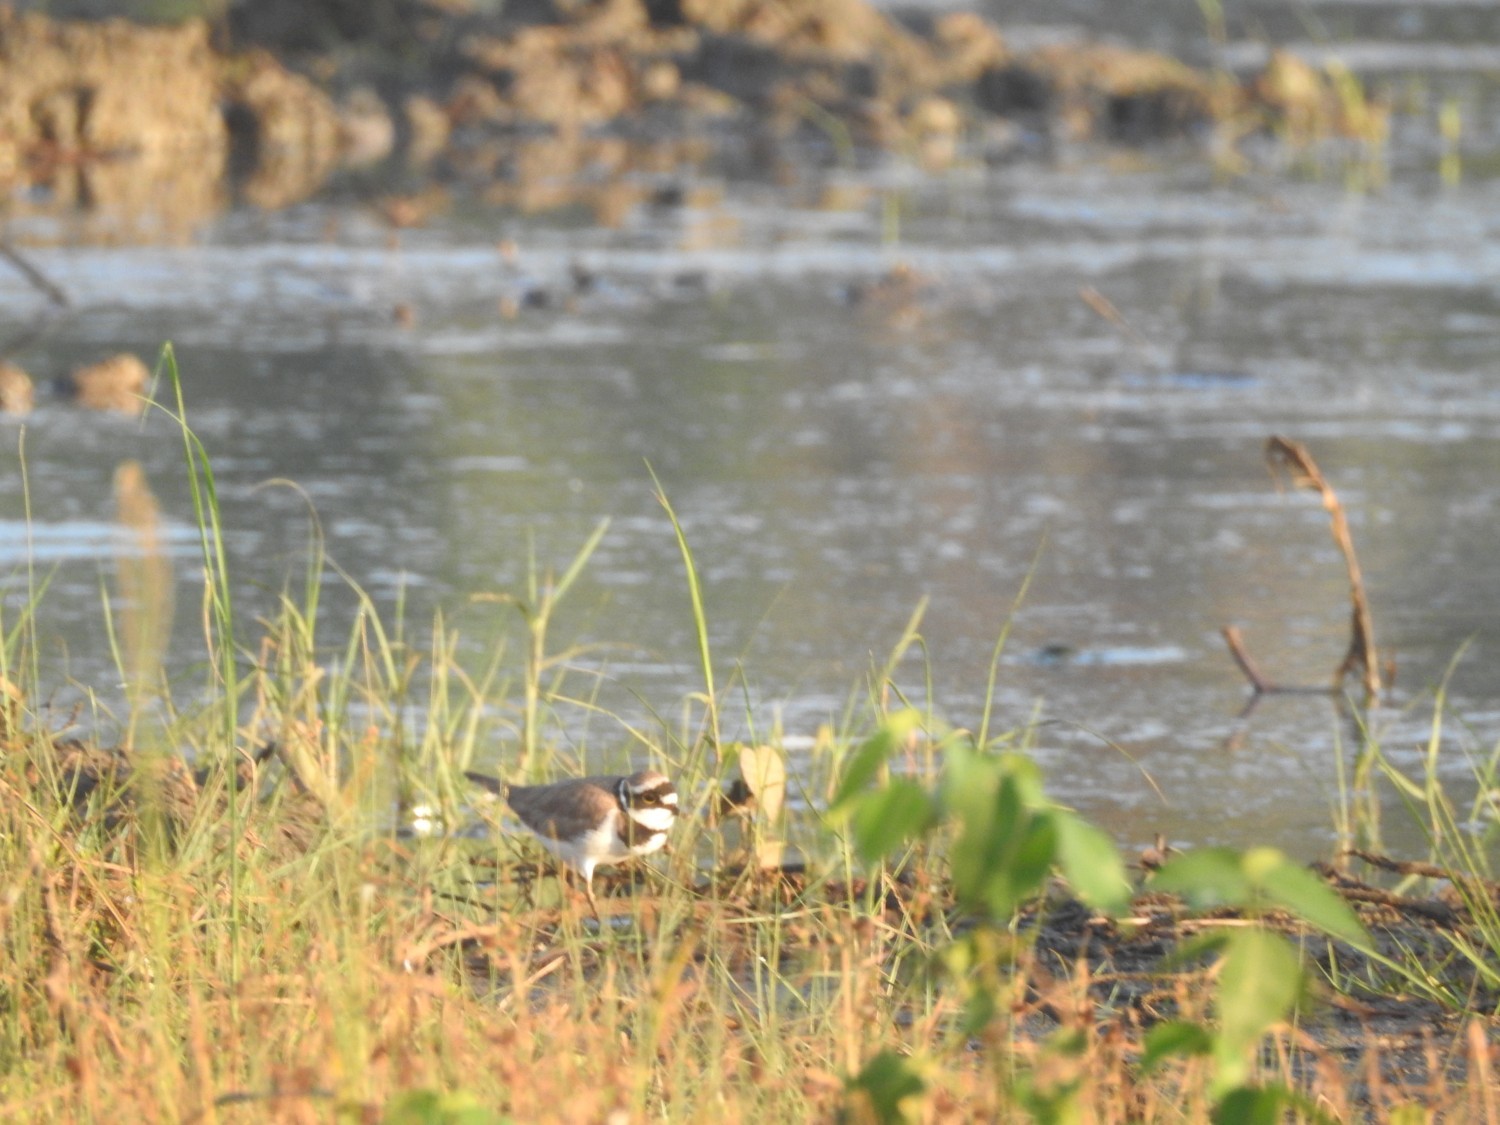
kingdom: Animalia
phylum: Chordata
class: Aves
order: Charadriiformes
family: Charadriidae
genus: Charadrius
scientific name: Charadrius dubius
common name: Little ringed plover
